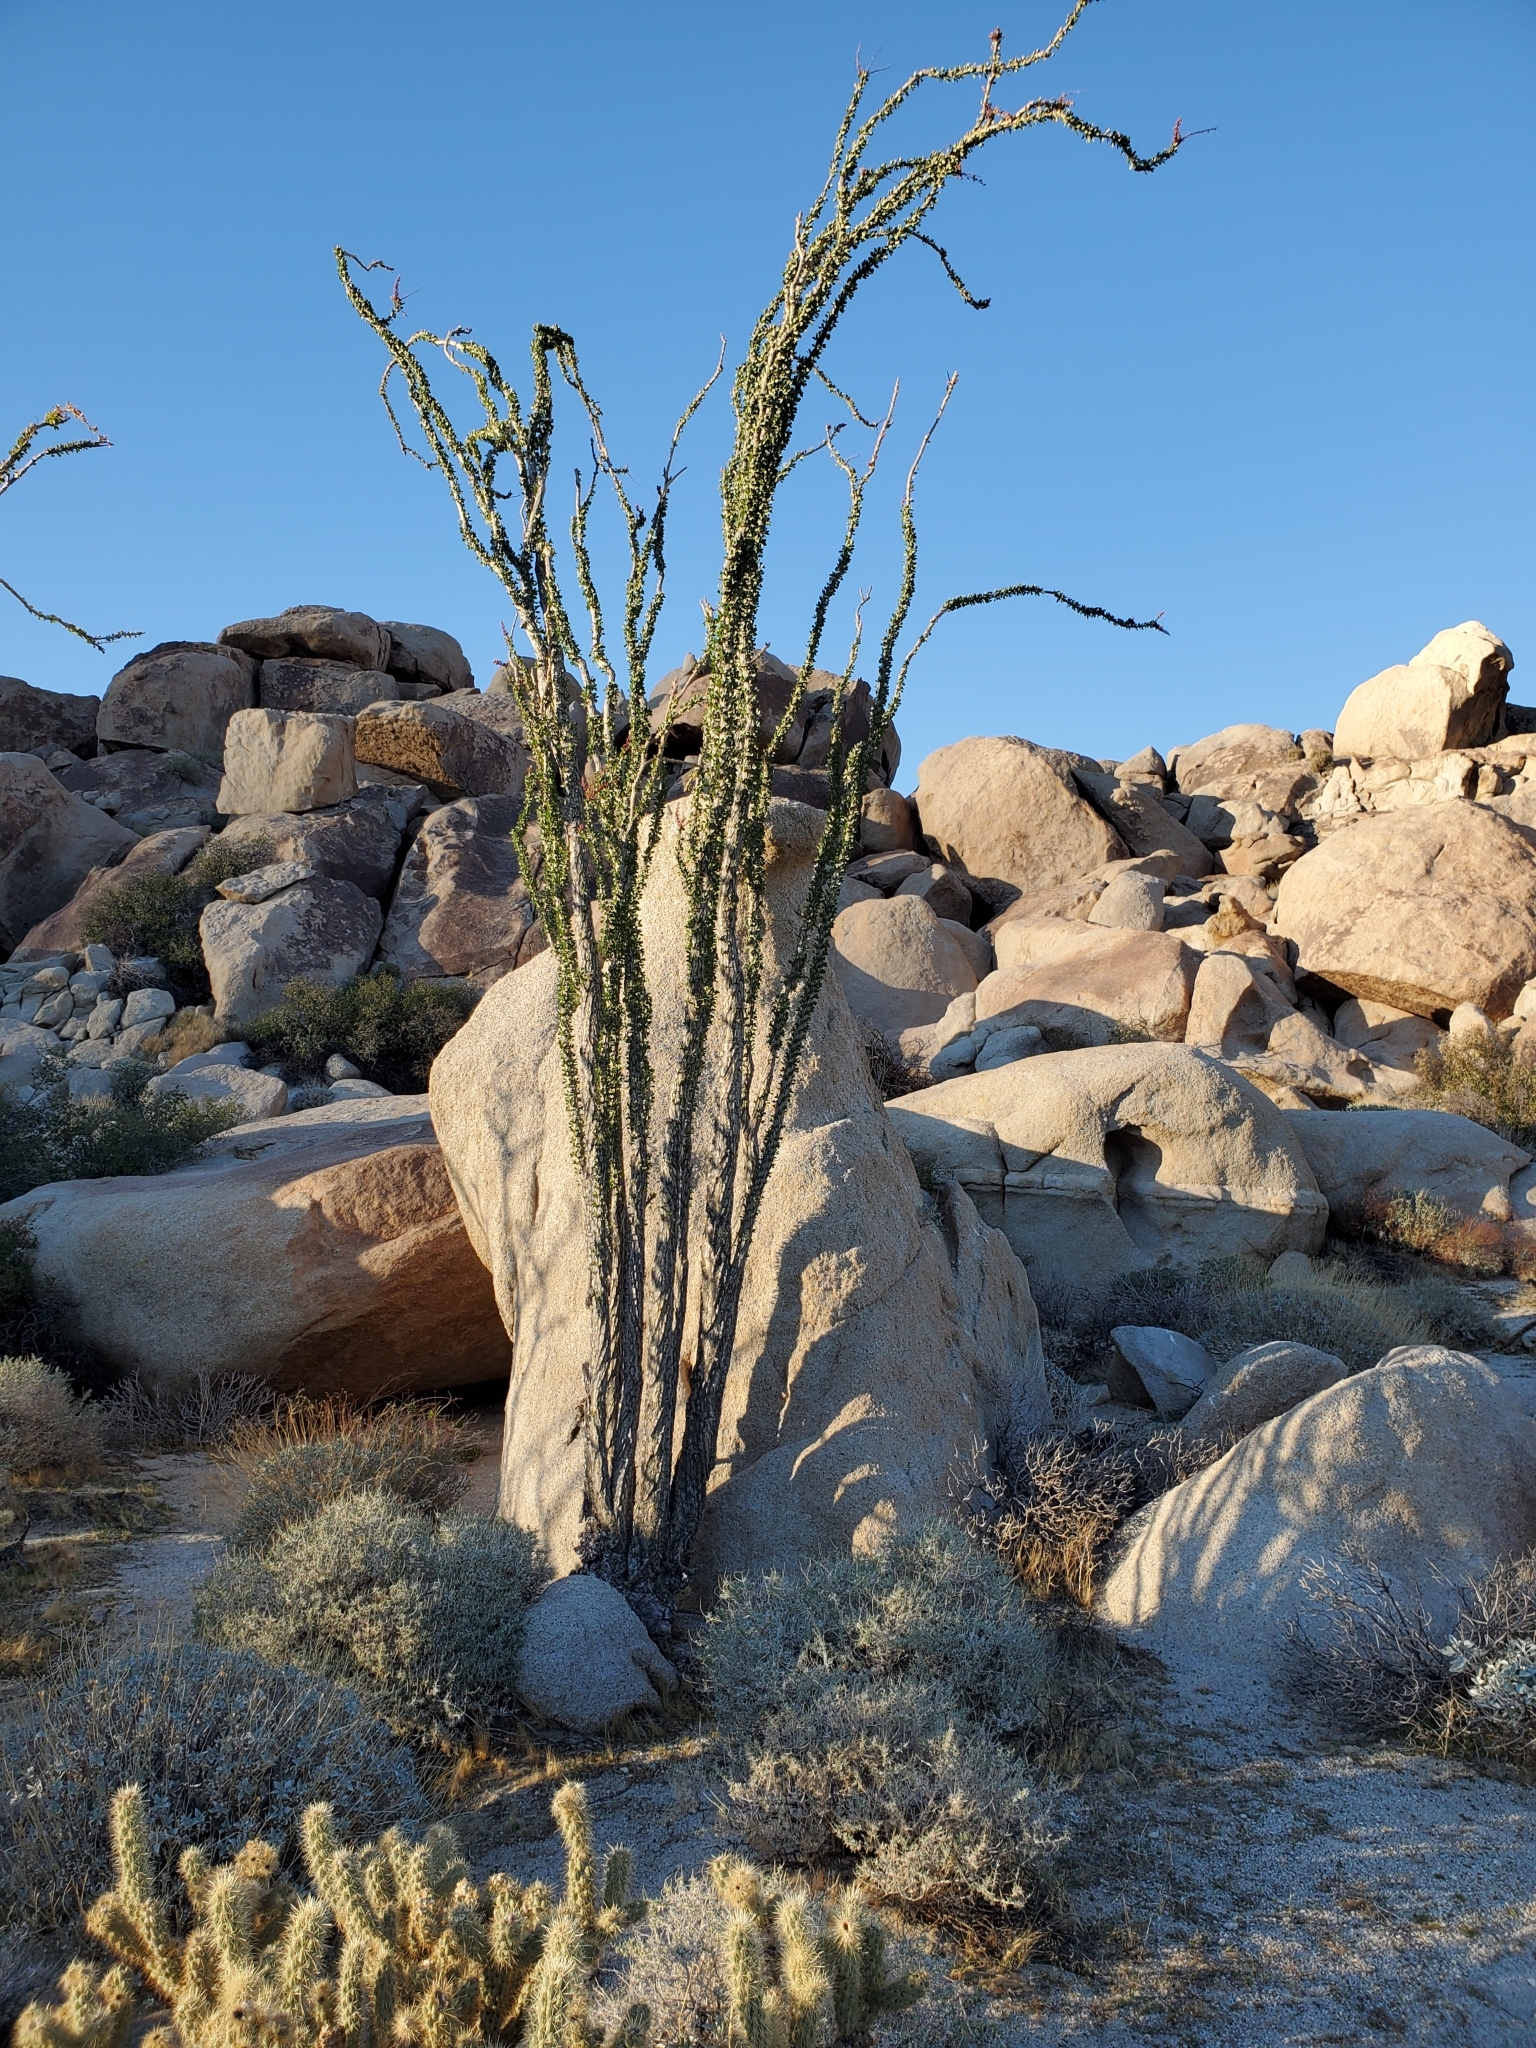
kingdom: Plantae
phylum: Tracheophyta
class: Magnoliopsida
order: Ericales
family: Fouquieriaceae
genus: Fouquieria
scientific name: Fouquieria splendens
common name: Vine-cactus
